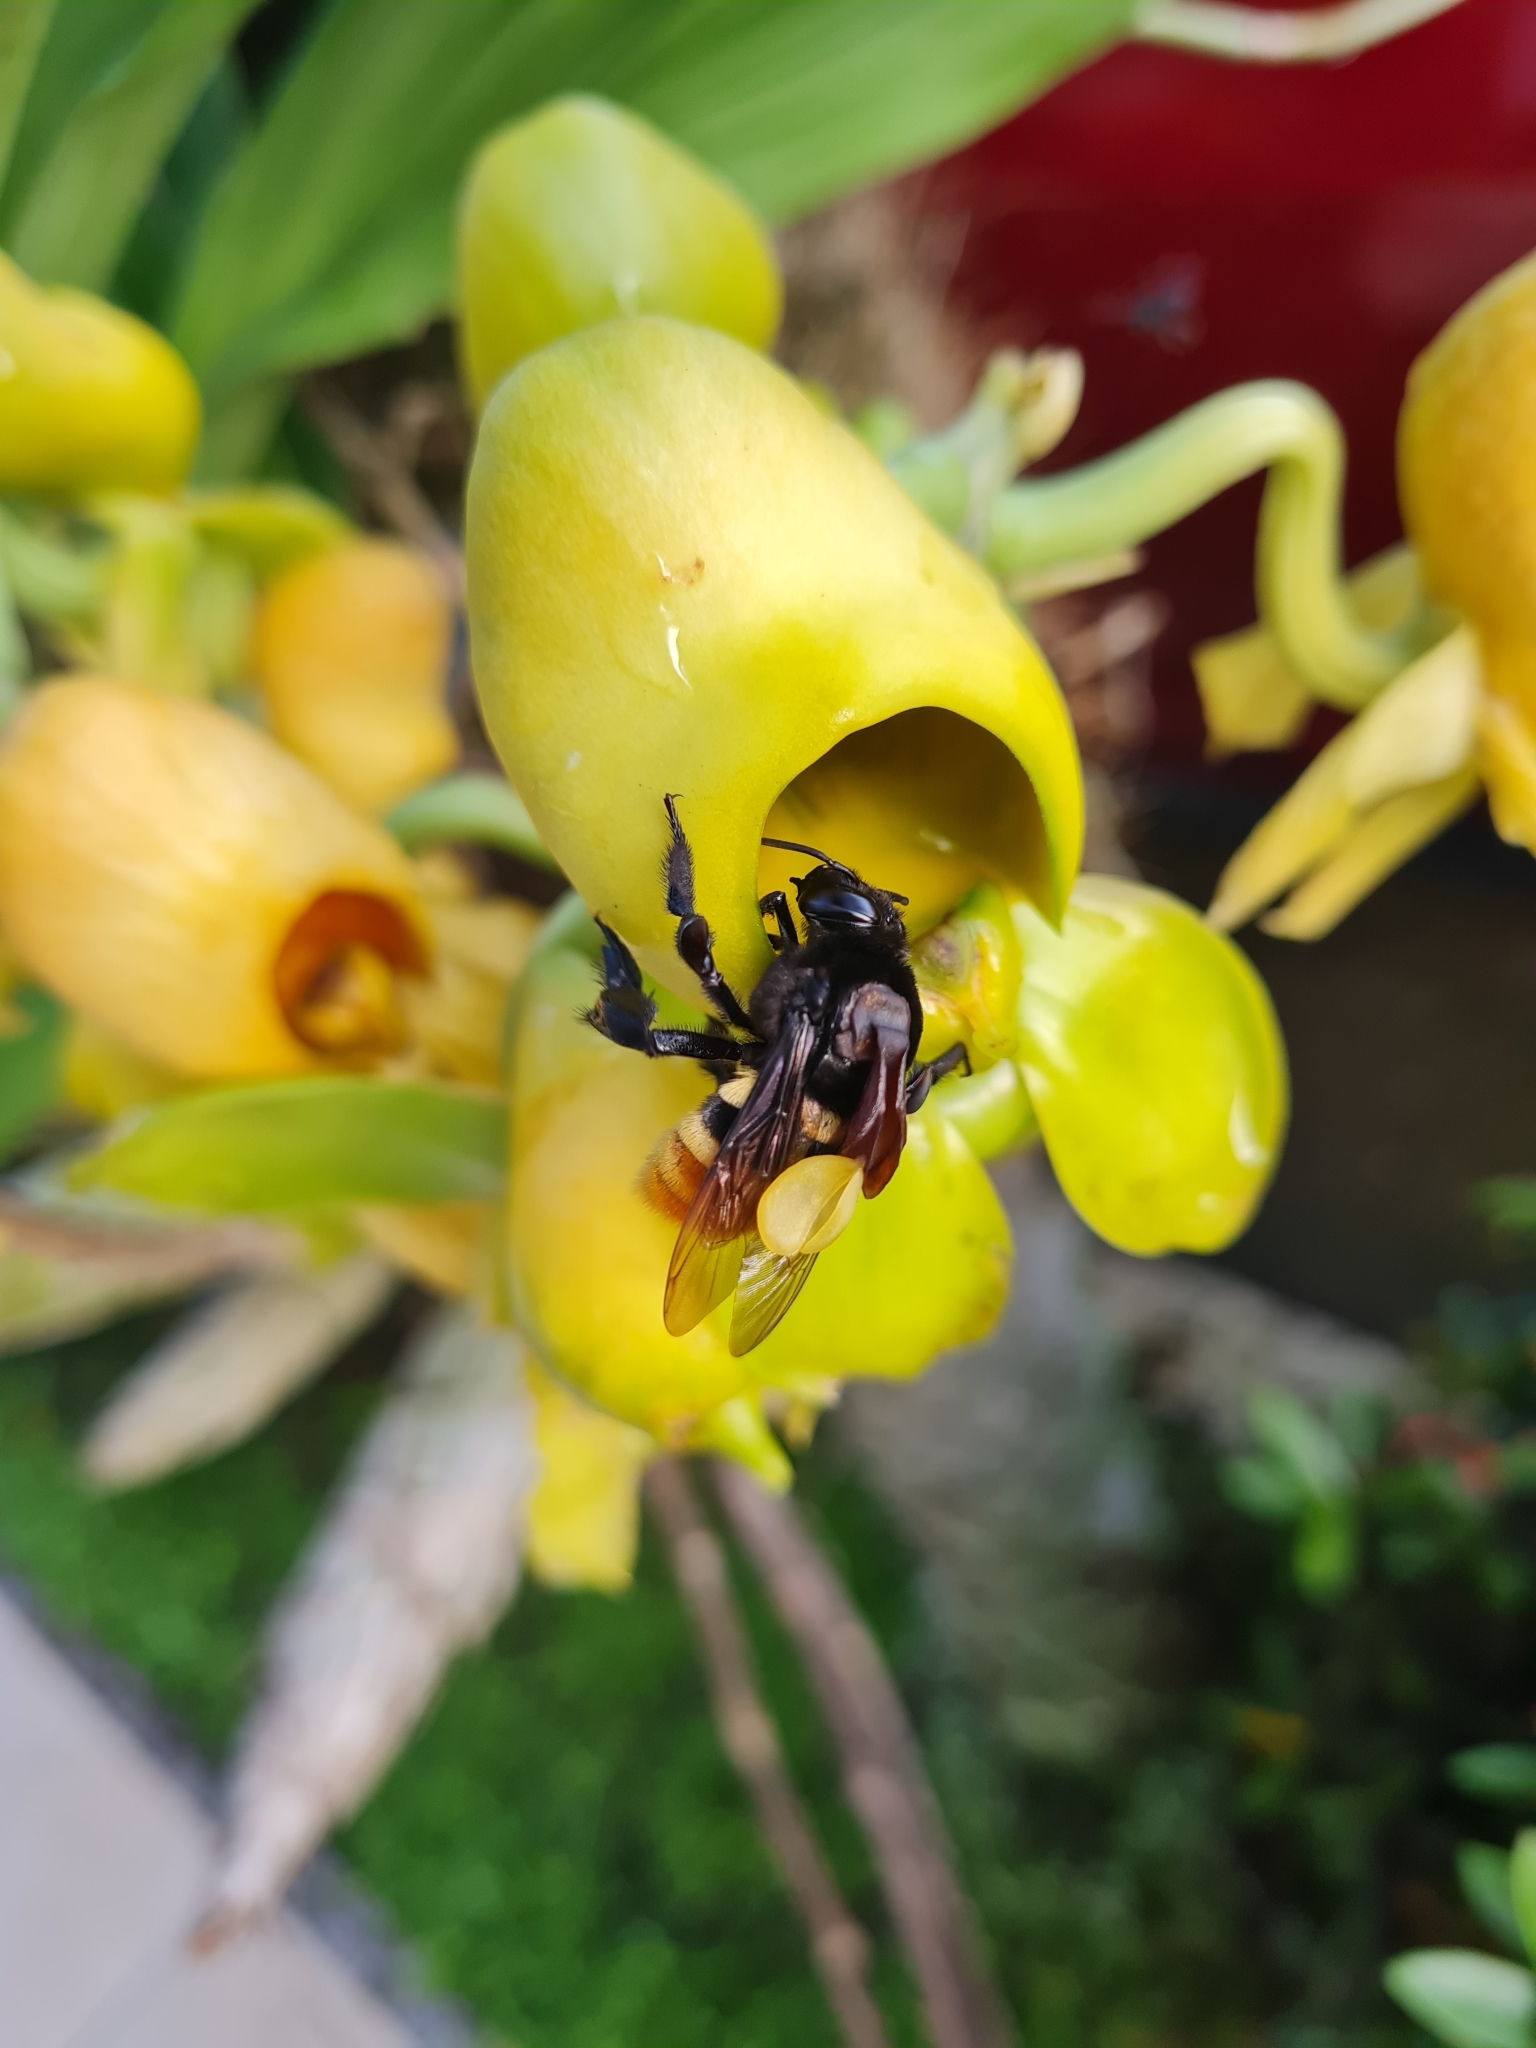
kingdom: Animalia
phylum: Arthropoda
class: Insecta
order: Hymenoptera
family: Apidae
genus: Eulaema
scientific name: Eulaema cingulata
